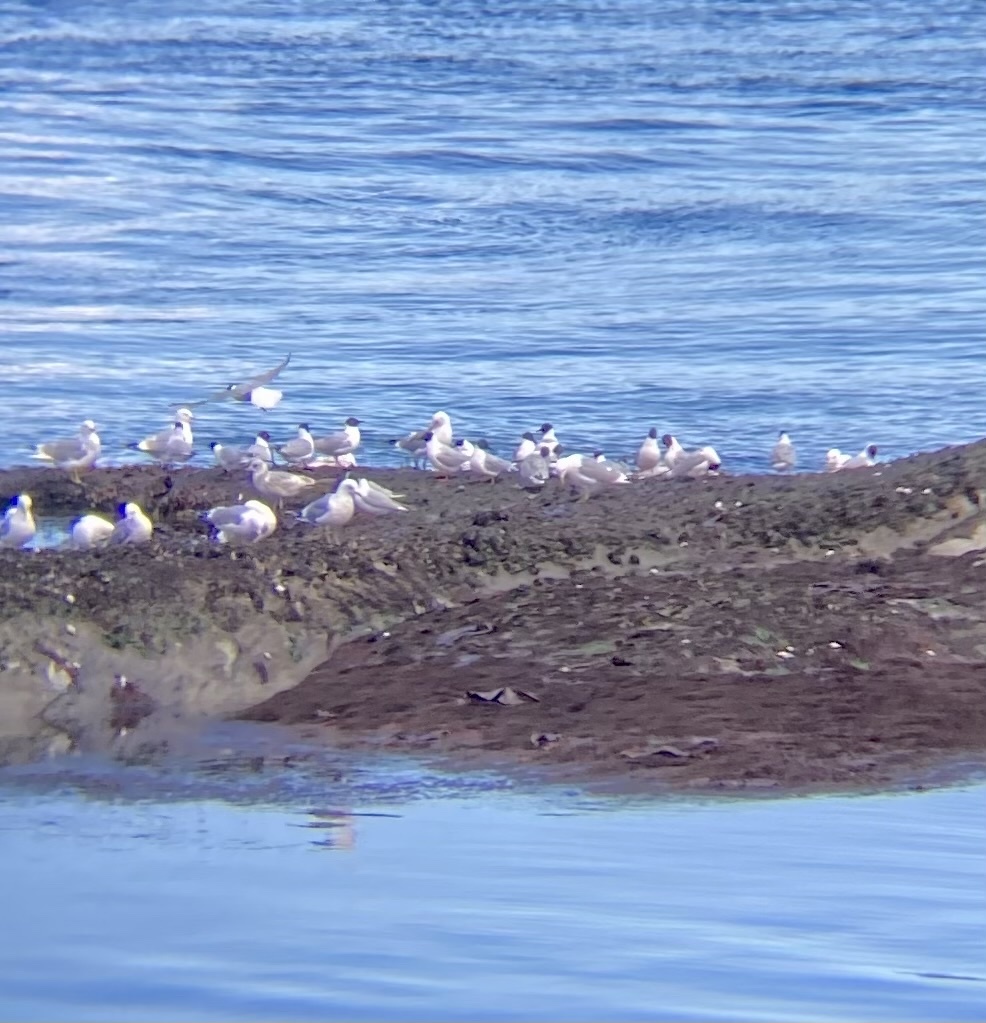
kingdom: Animalia
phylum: Chordata
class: Aves
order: Charadriiformes
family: Laridae
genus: Chroicocephalus
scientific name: Chroicocephalus philadelphia
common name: Bonaparte's gull
